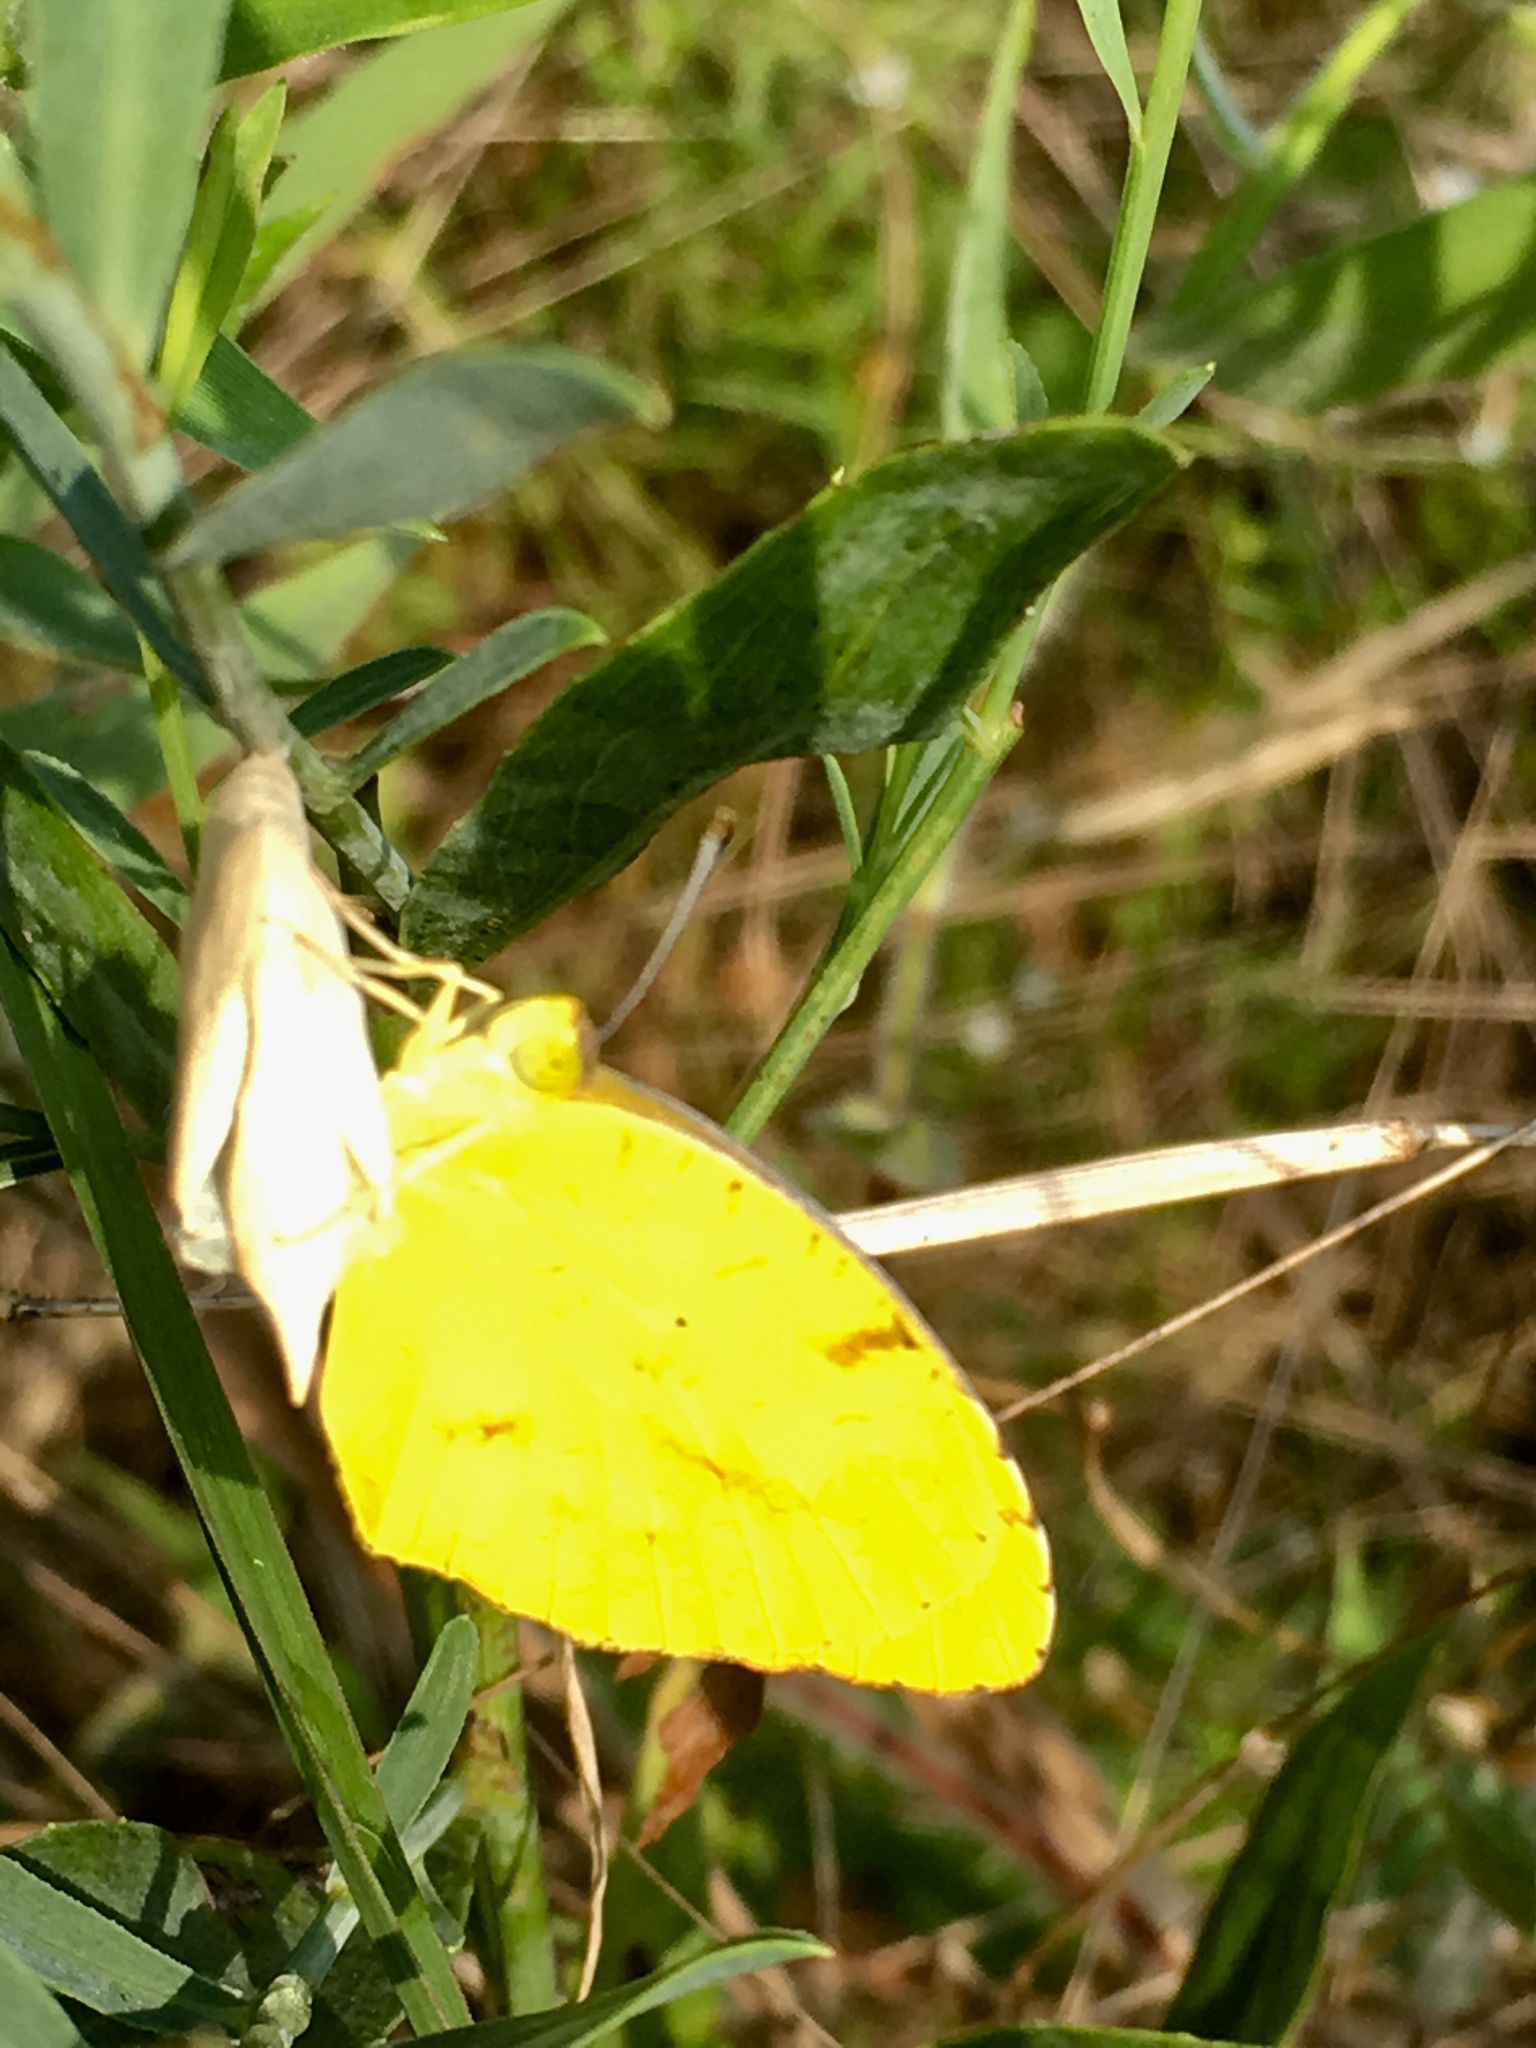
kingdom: Animalia
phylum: Arthropoda
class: Insecta
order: Lepidoptera
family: Pieridae
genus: Abaeis
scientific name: Abaeis nicippe
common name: Sleepy orange
